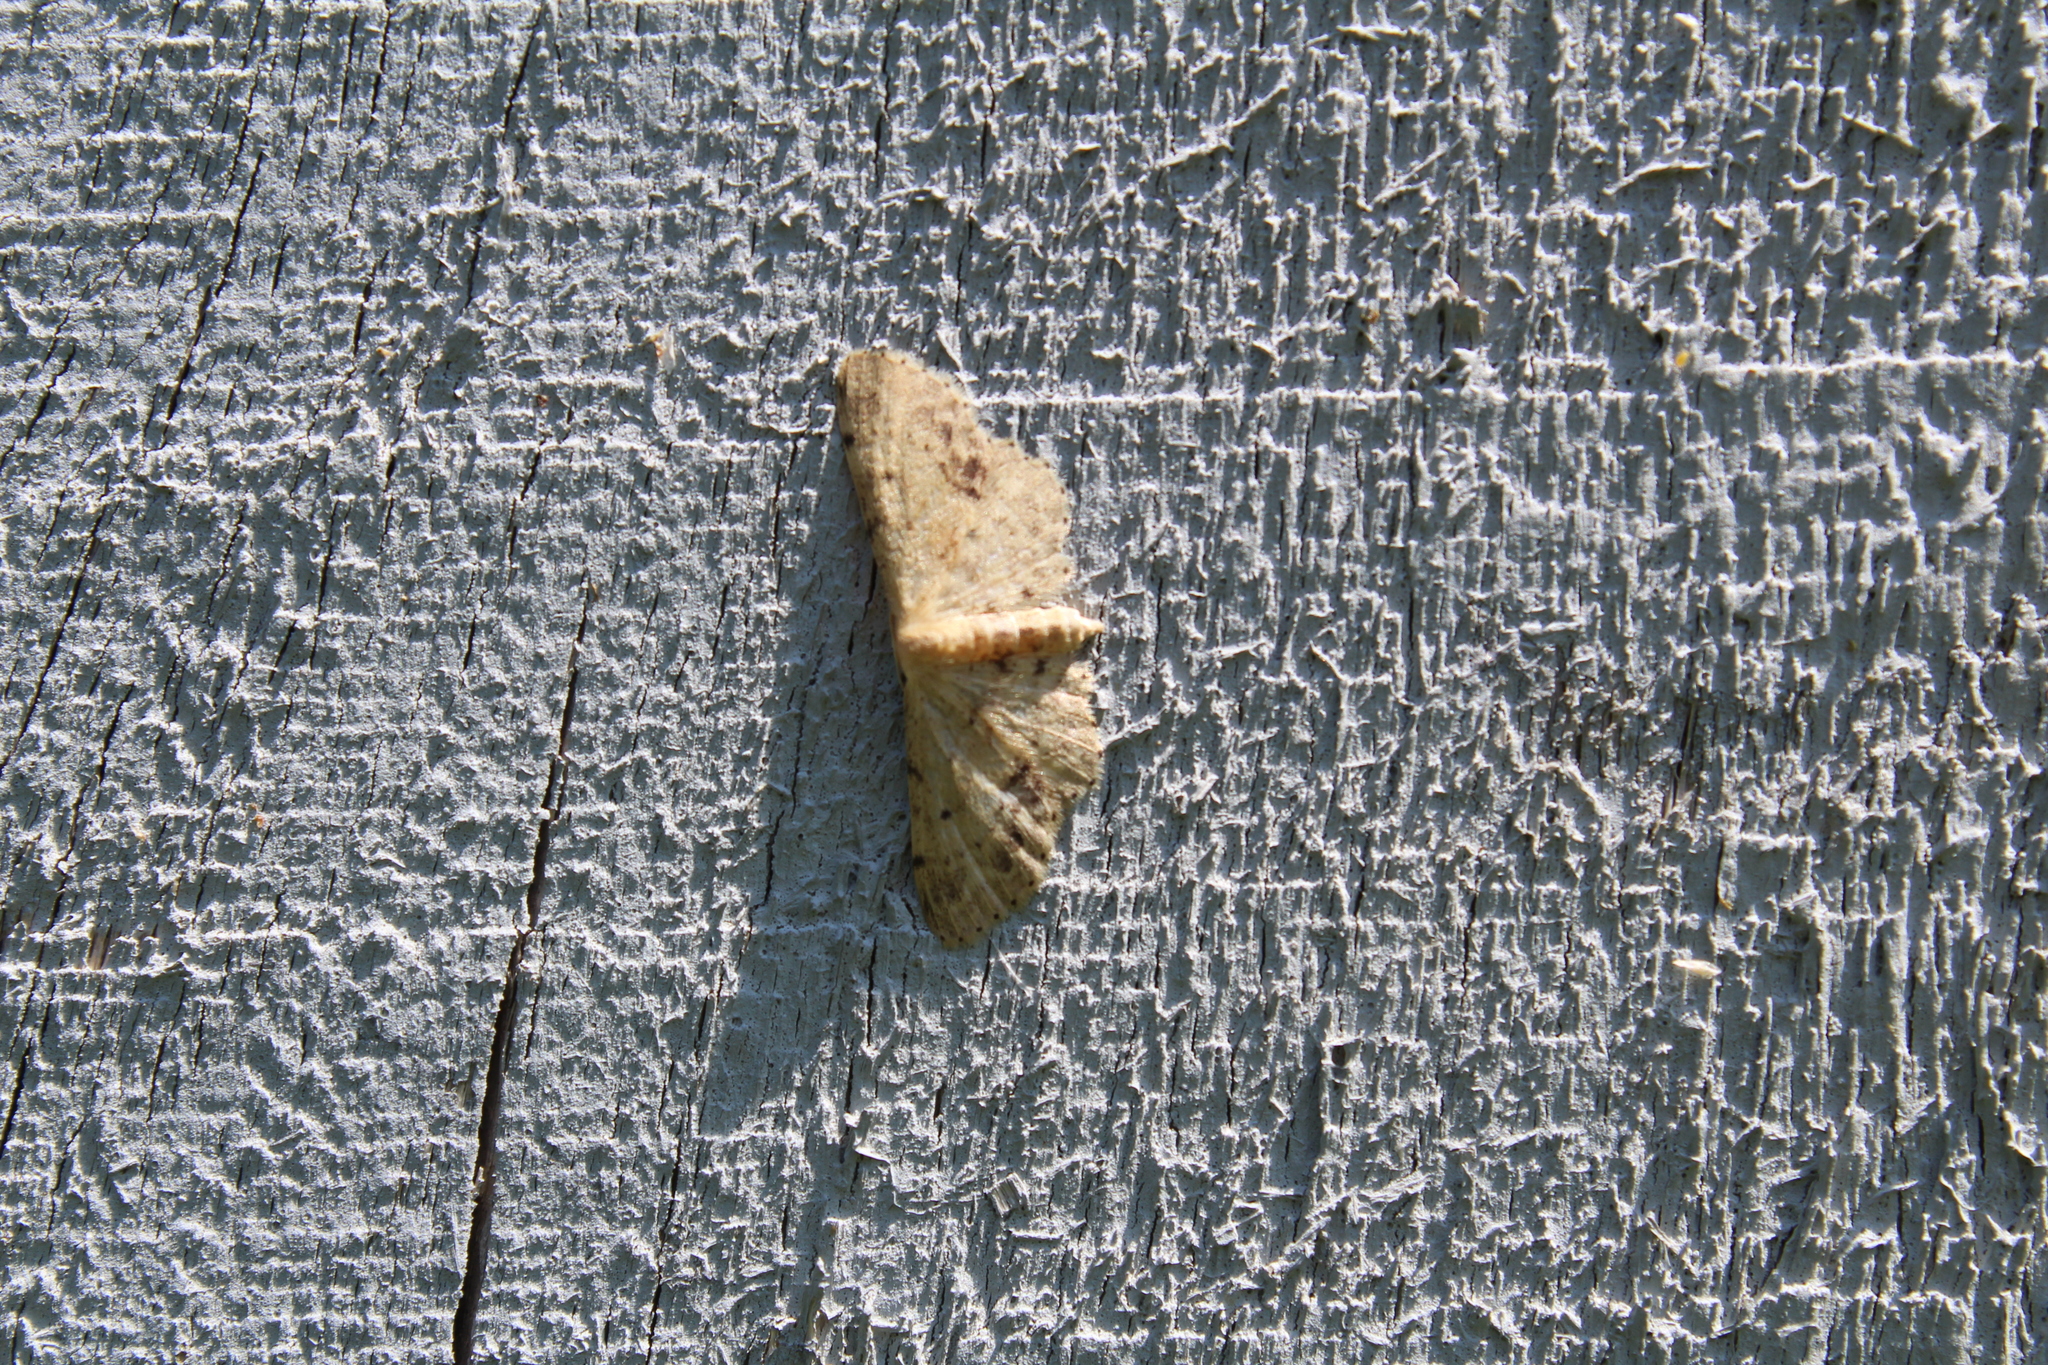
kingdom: Animalia
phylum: Arthropoda
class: Insecta
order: Lepidoptera
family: Geometridae
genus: Idaea
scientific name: Idaea dimidiata
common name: Single-dotted wave
